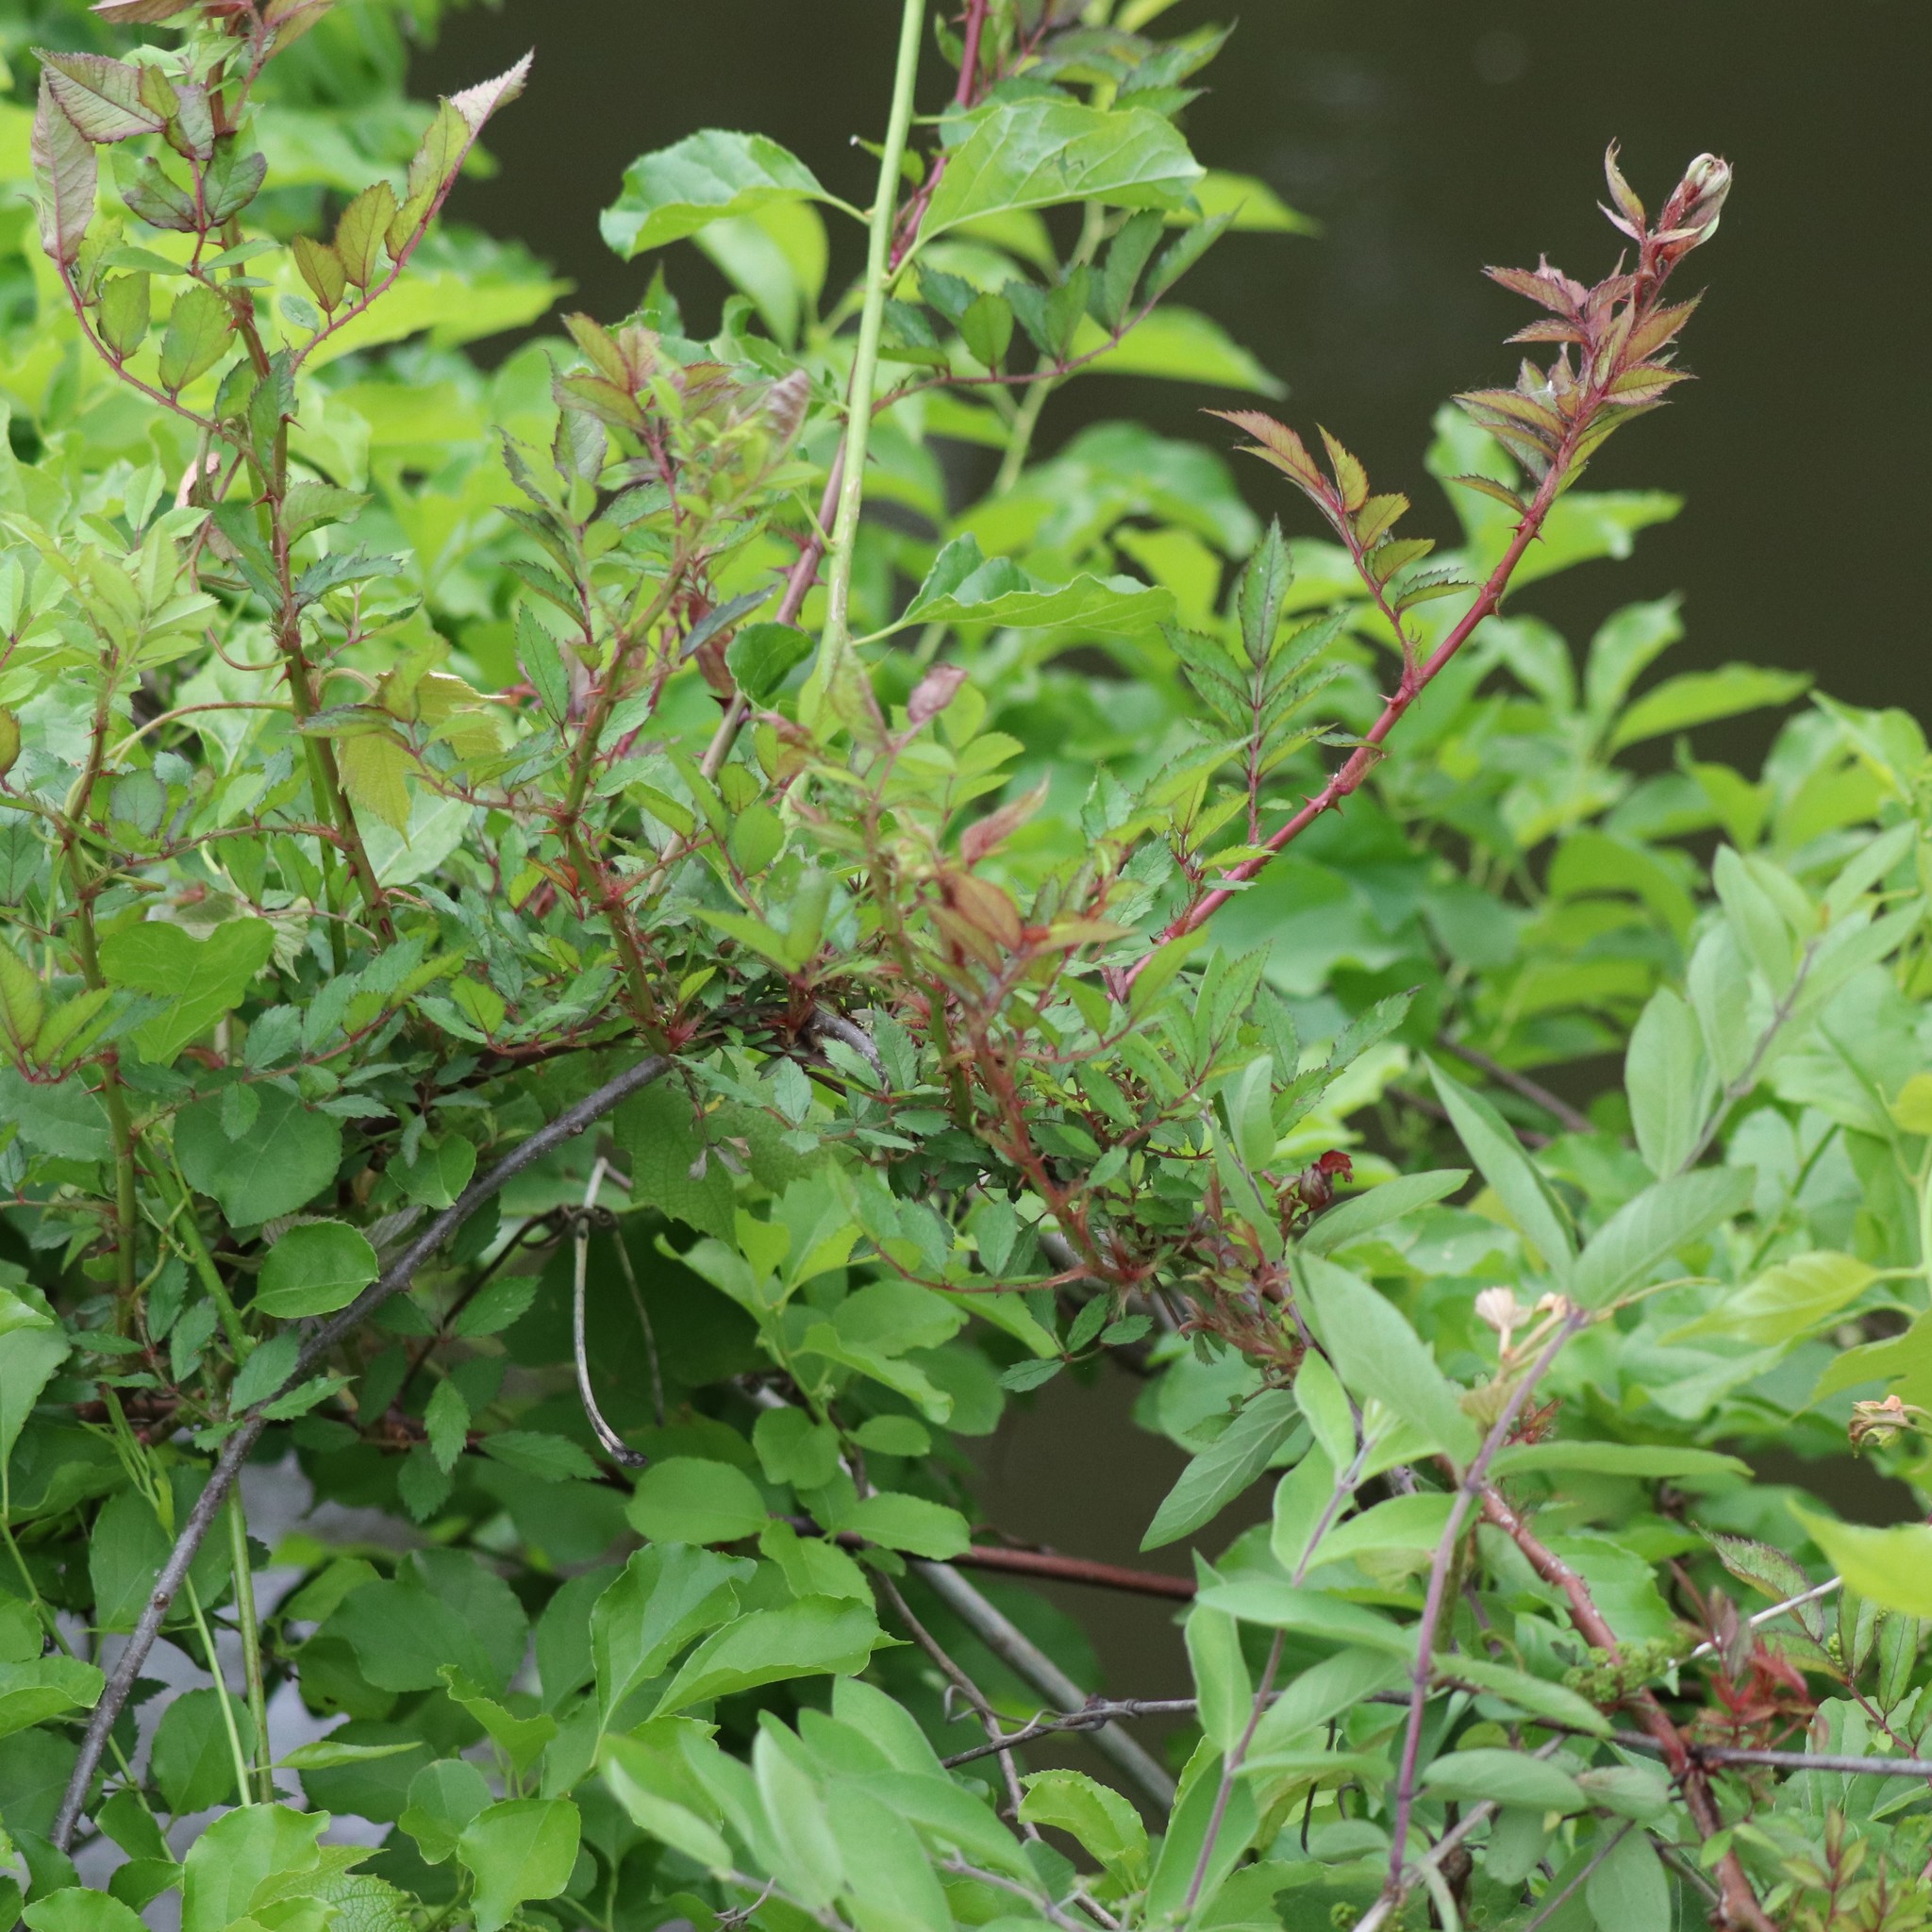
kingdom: Viruses
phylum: Negarnaviricota
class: Ellioviricetes
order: Bunyavirales
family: Fimoviridae
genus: Emaravirus
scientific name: Emaravirus rosae
